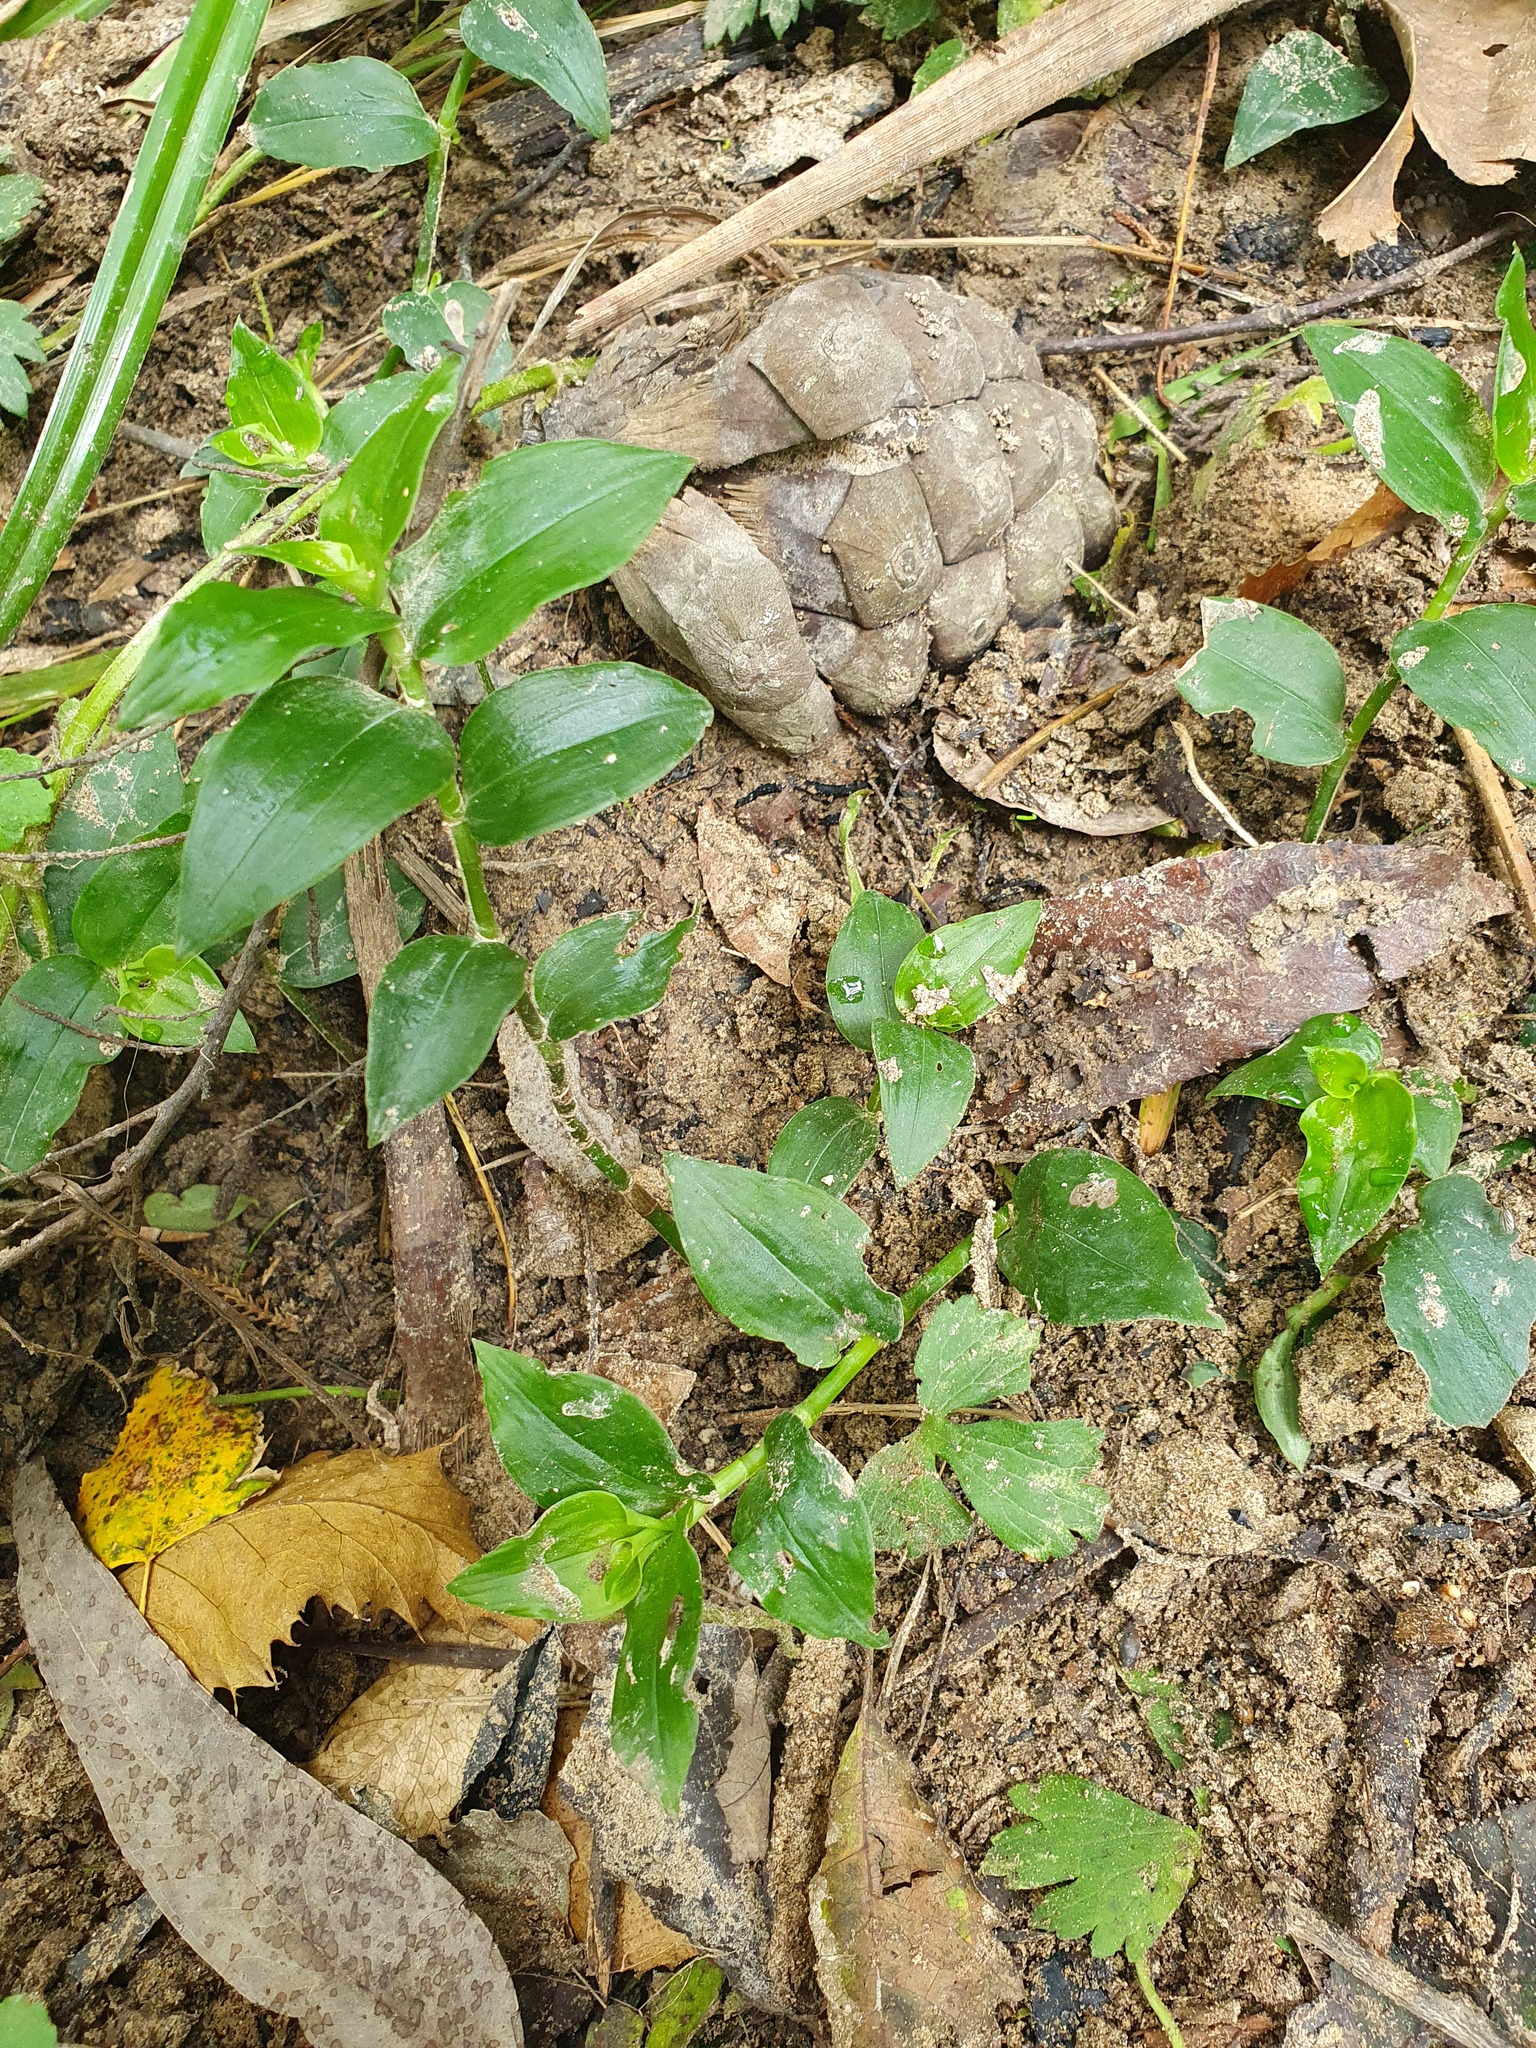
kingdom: Plantae
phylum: Tracheophyta
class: Liliopsida
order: Commelinales
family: Commelinaceae
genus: Tradescantia
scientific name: Tradescantia fluminensis
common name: Wandering-jew
